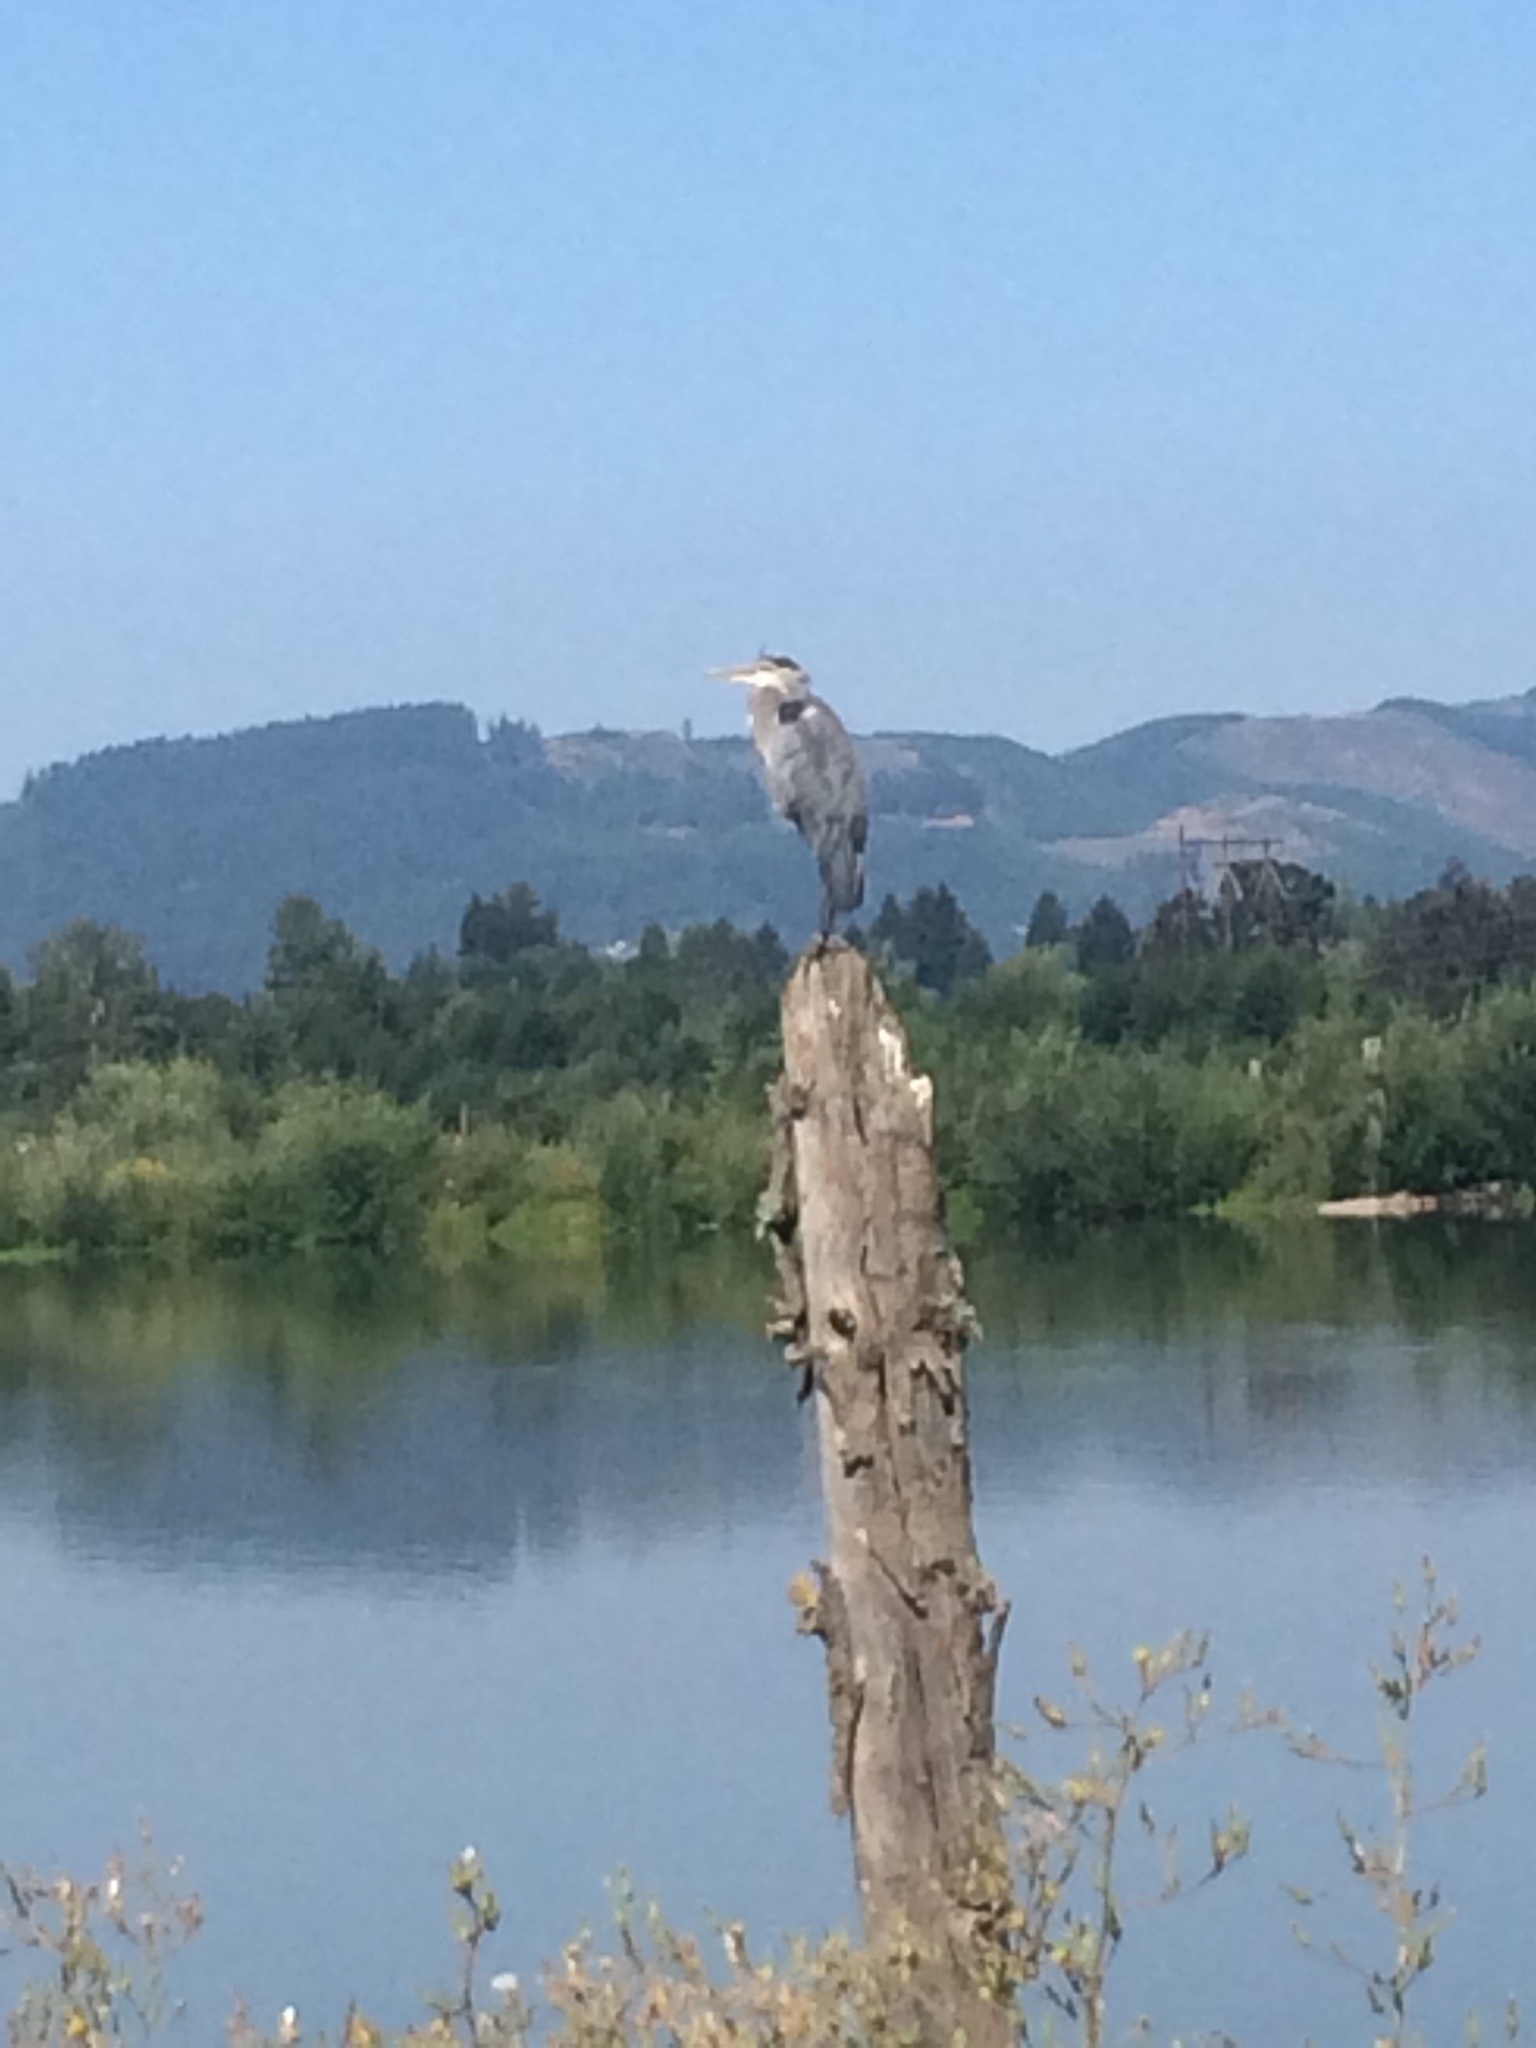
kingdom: Animalia
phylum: Chordata
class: Aves
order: Pelecaniformes
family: Ardeidae
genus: Ardea
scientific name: Ardea herodias
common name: Great blue heron
